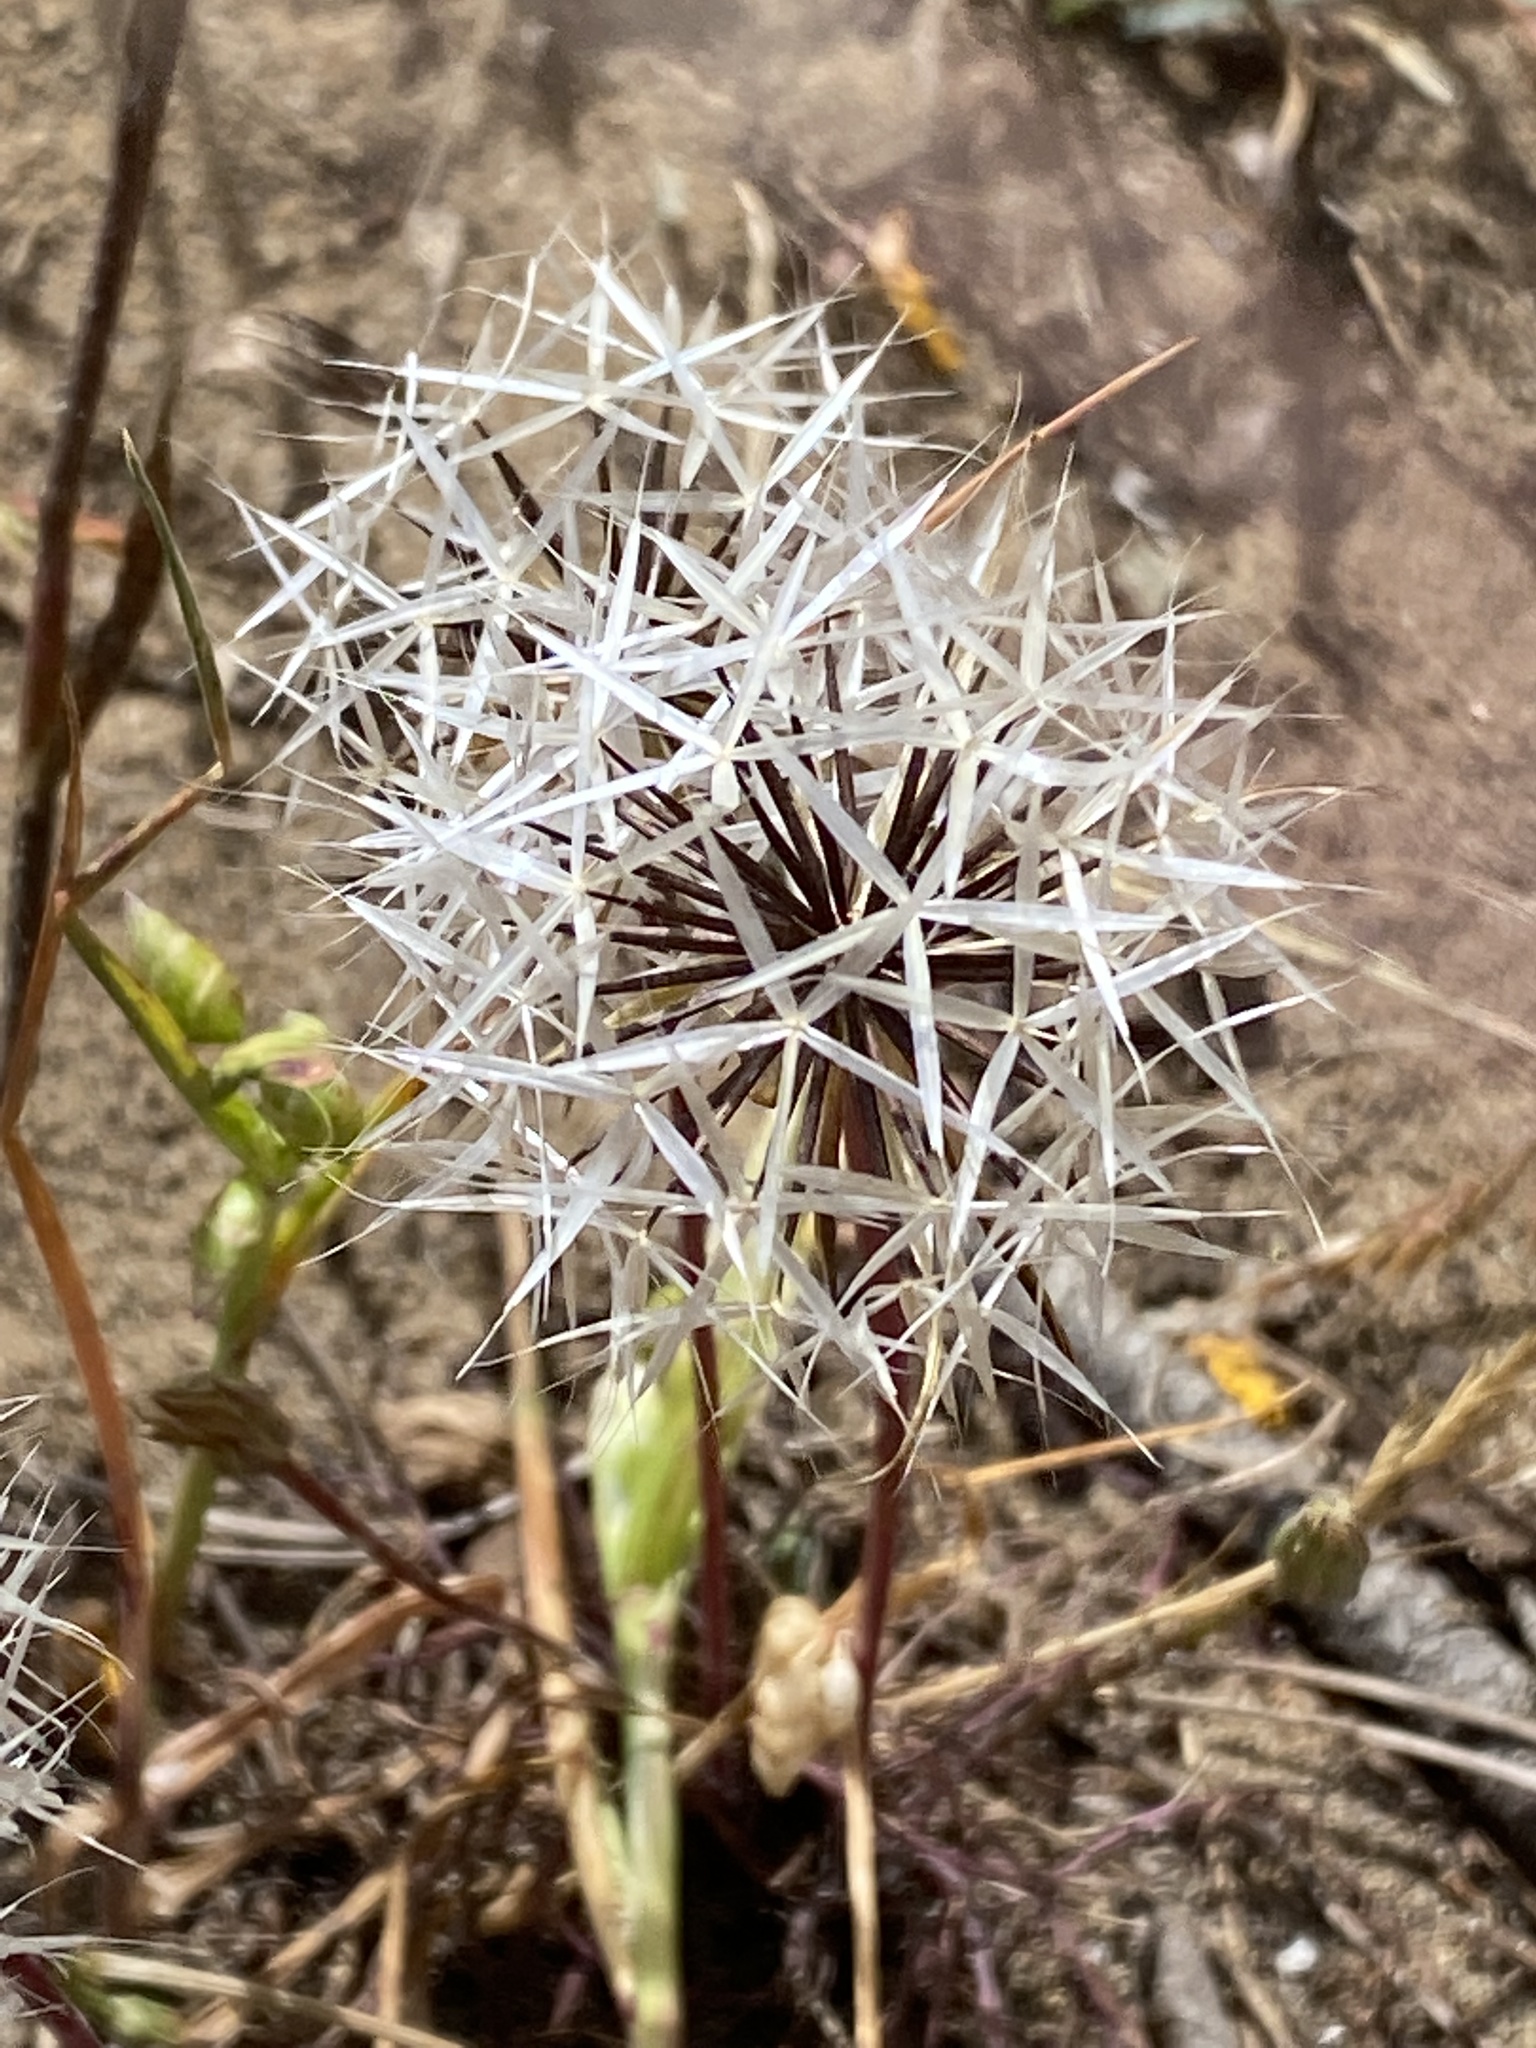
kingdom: Plantae
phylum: Tracheophyta
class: Magnoliopsida
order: Asterales
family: Asteraceae
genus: Microseris
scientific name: Microseris lindleyi
